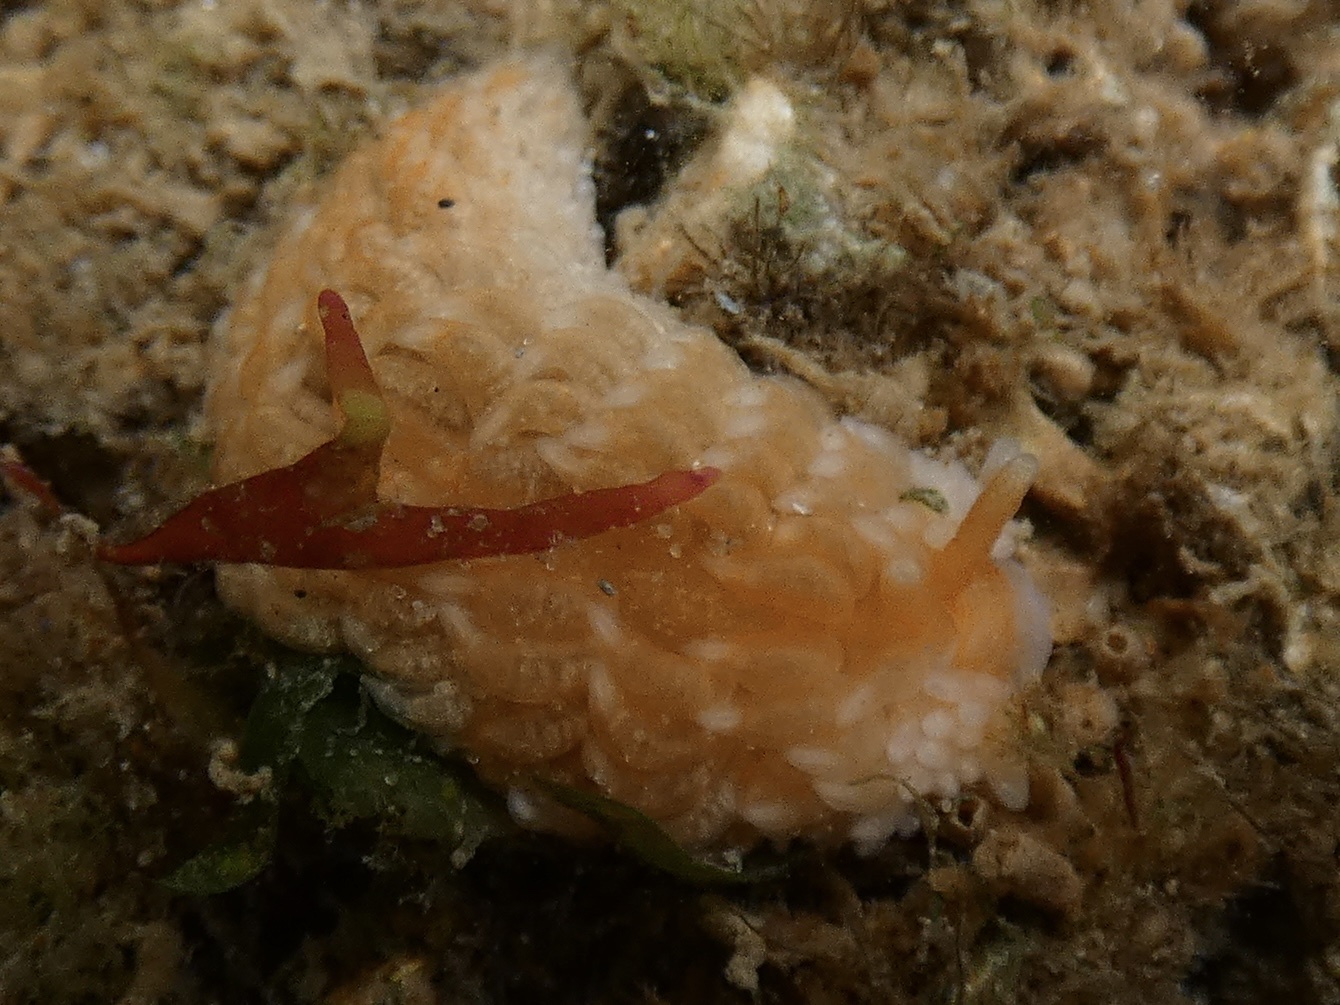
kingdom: Animalia
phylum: Mollusca
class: Gastropoda
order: Nudibranchia
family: Aeolidiidae
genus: Aeolidiella
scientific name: Aeolidiella glauca
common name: Orange-brown aeolid
